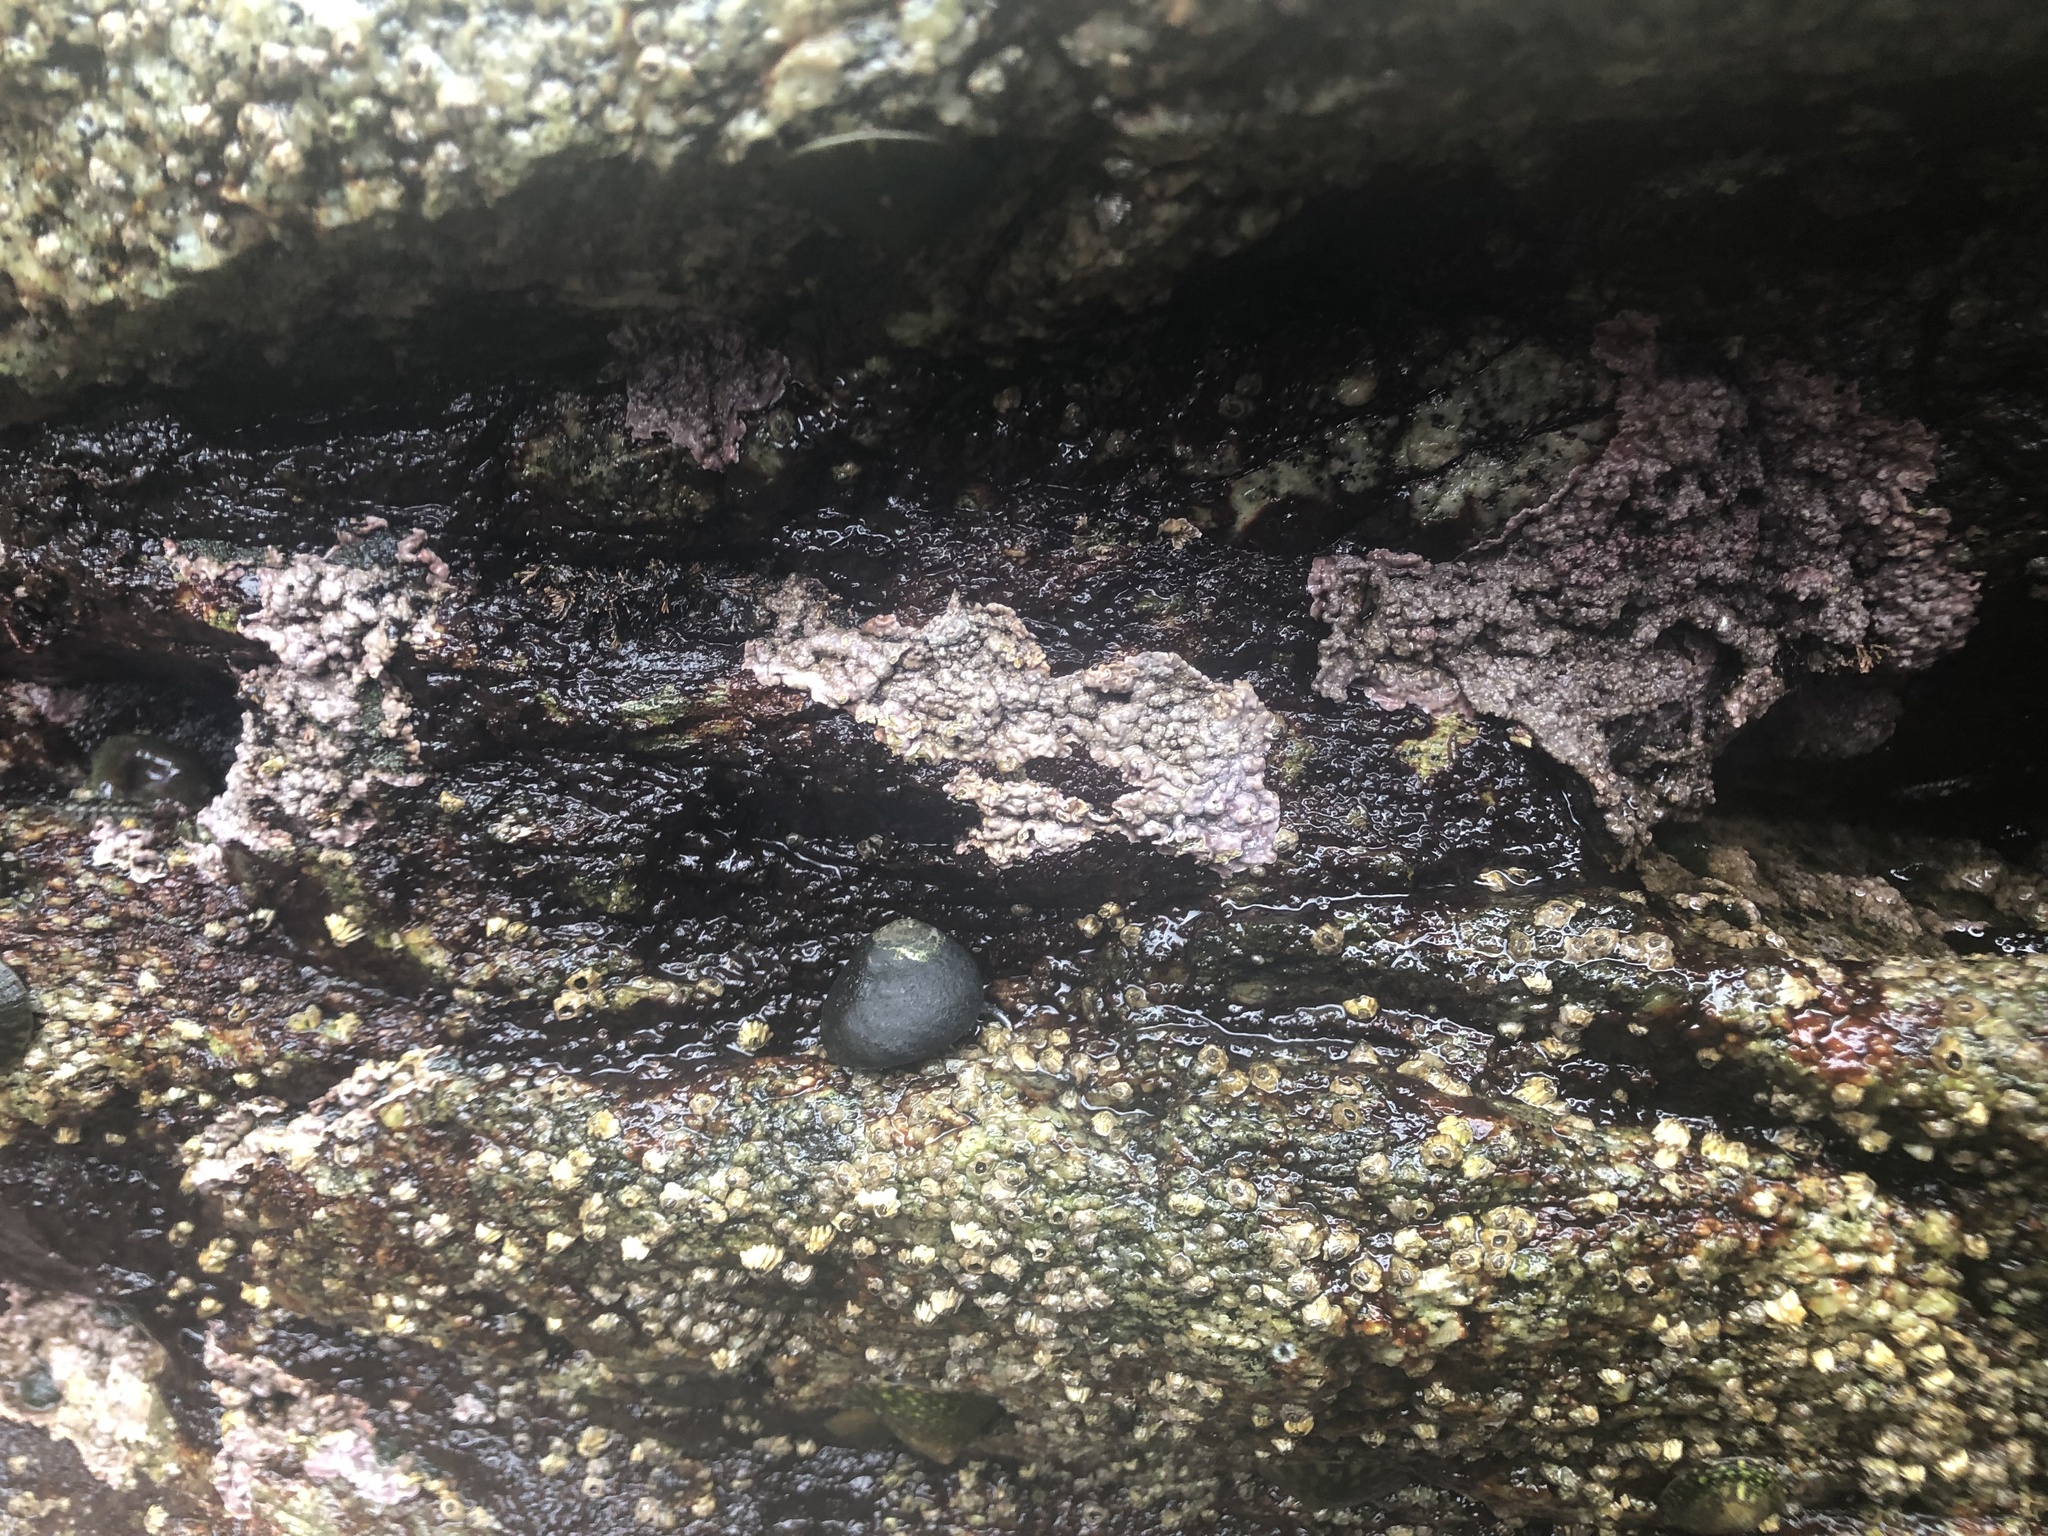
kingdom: Plantae
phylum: Rhodophyta
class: Florideophyceae
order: Corallinales
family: Corallinaceae
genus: Chamberlainium
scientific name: Chamberlainium tumidum
